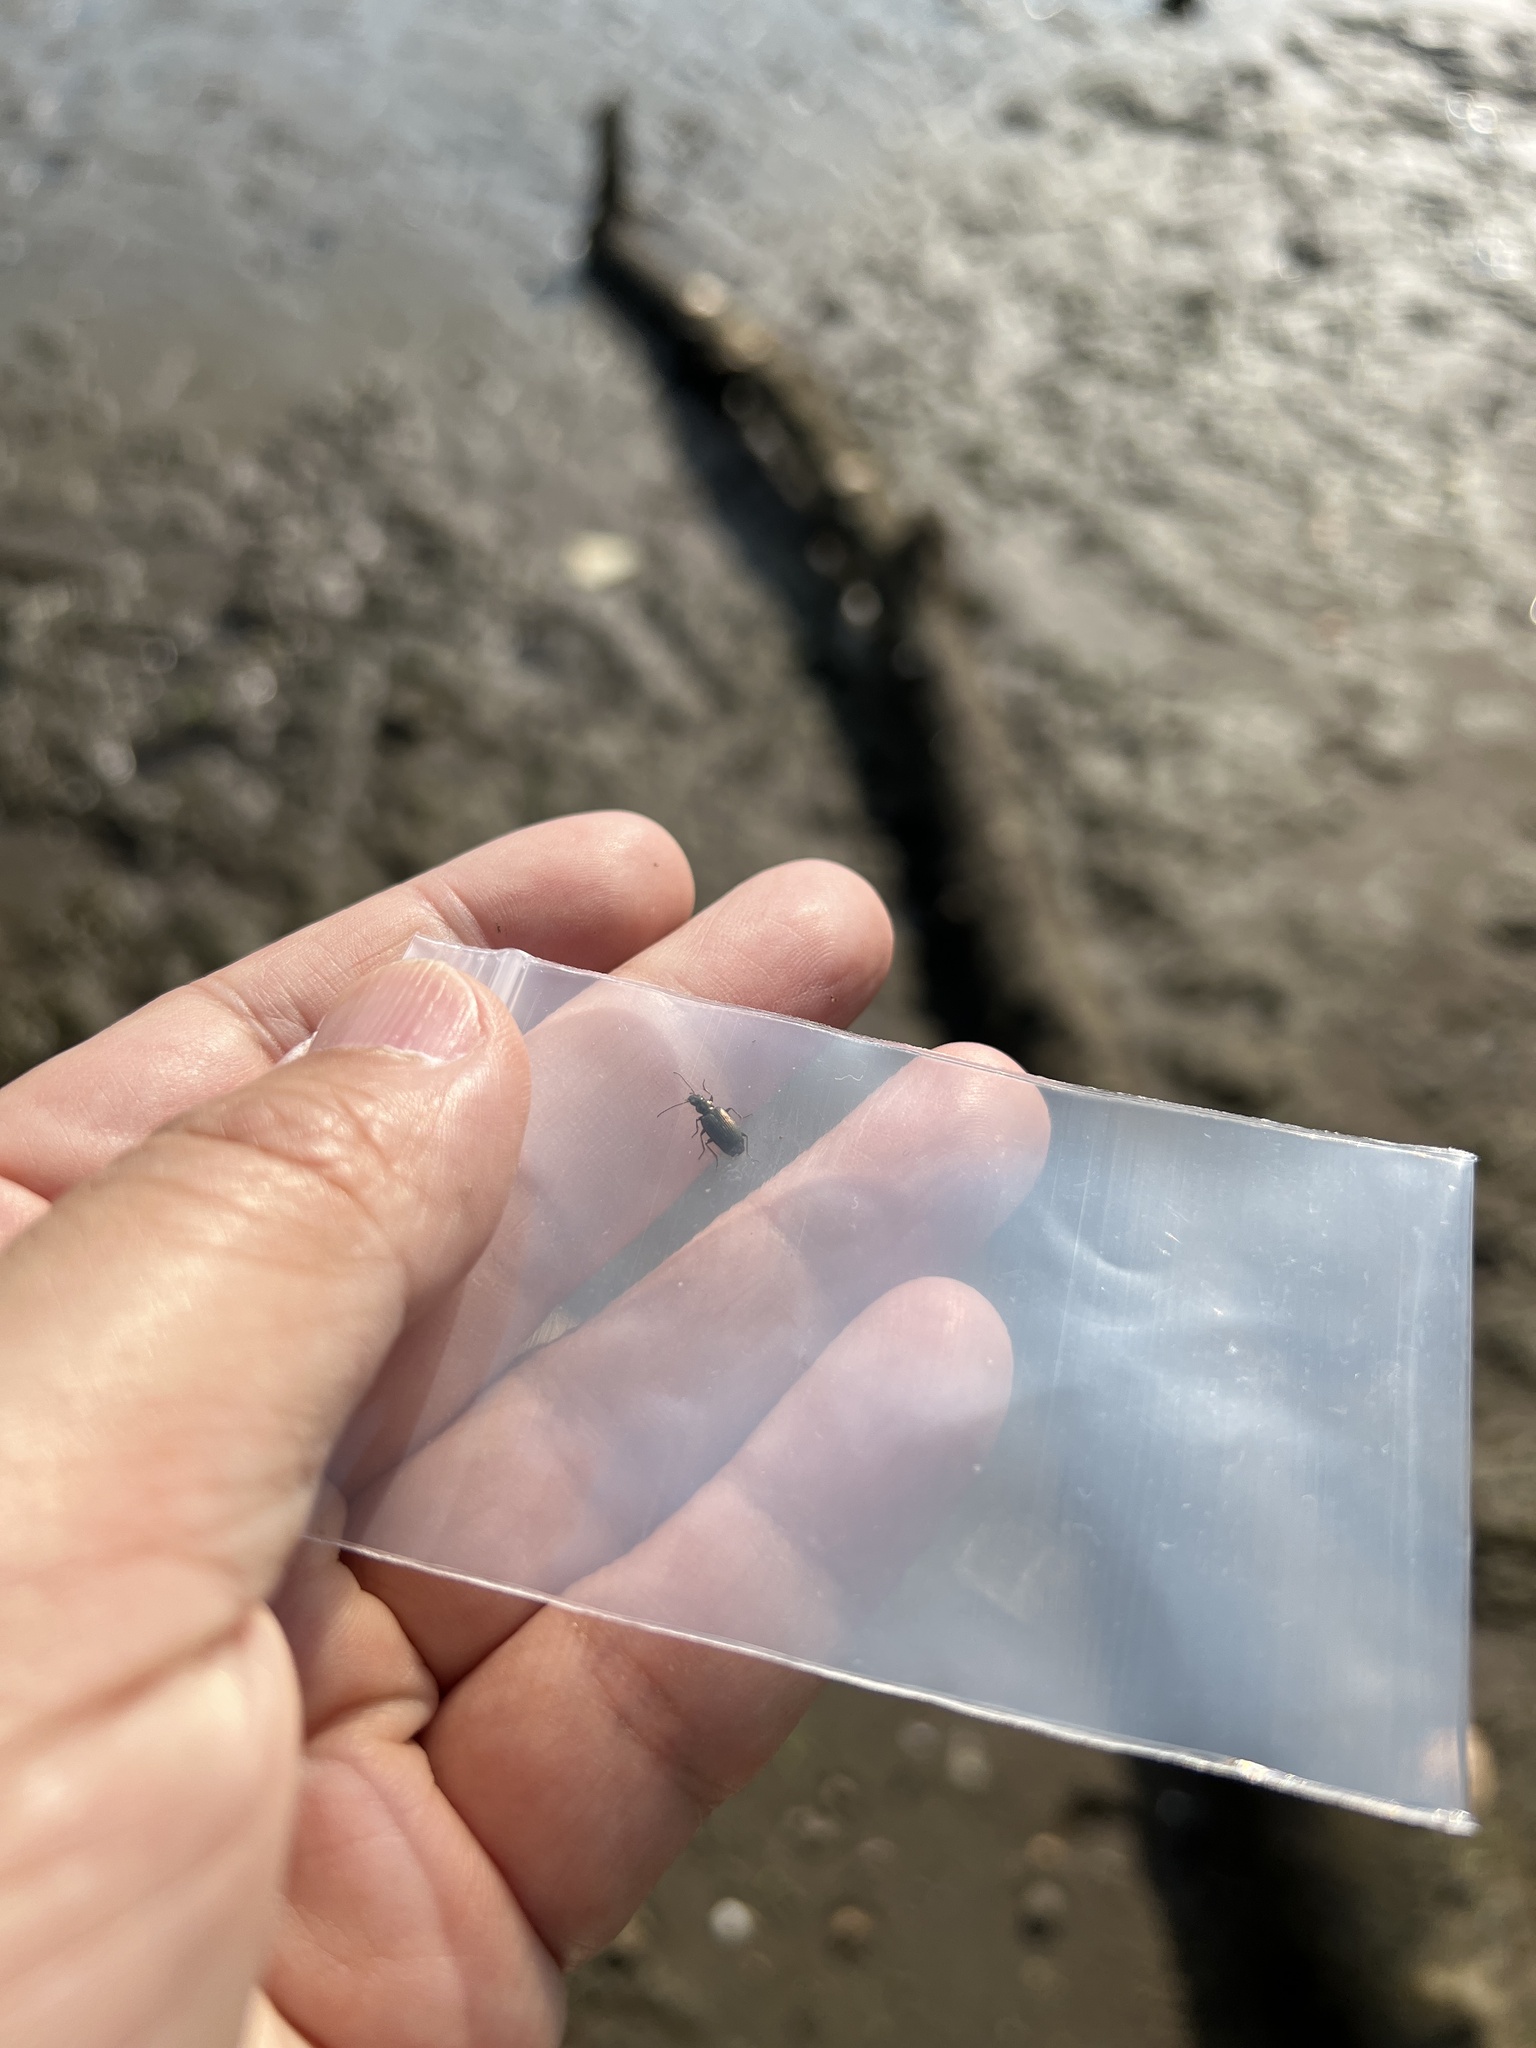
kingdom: Animalia
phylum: Arthropoda
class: Insecta
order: Coleoptera
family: Carabidae
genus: Bembidion
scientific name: Bembidion chalceum
